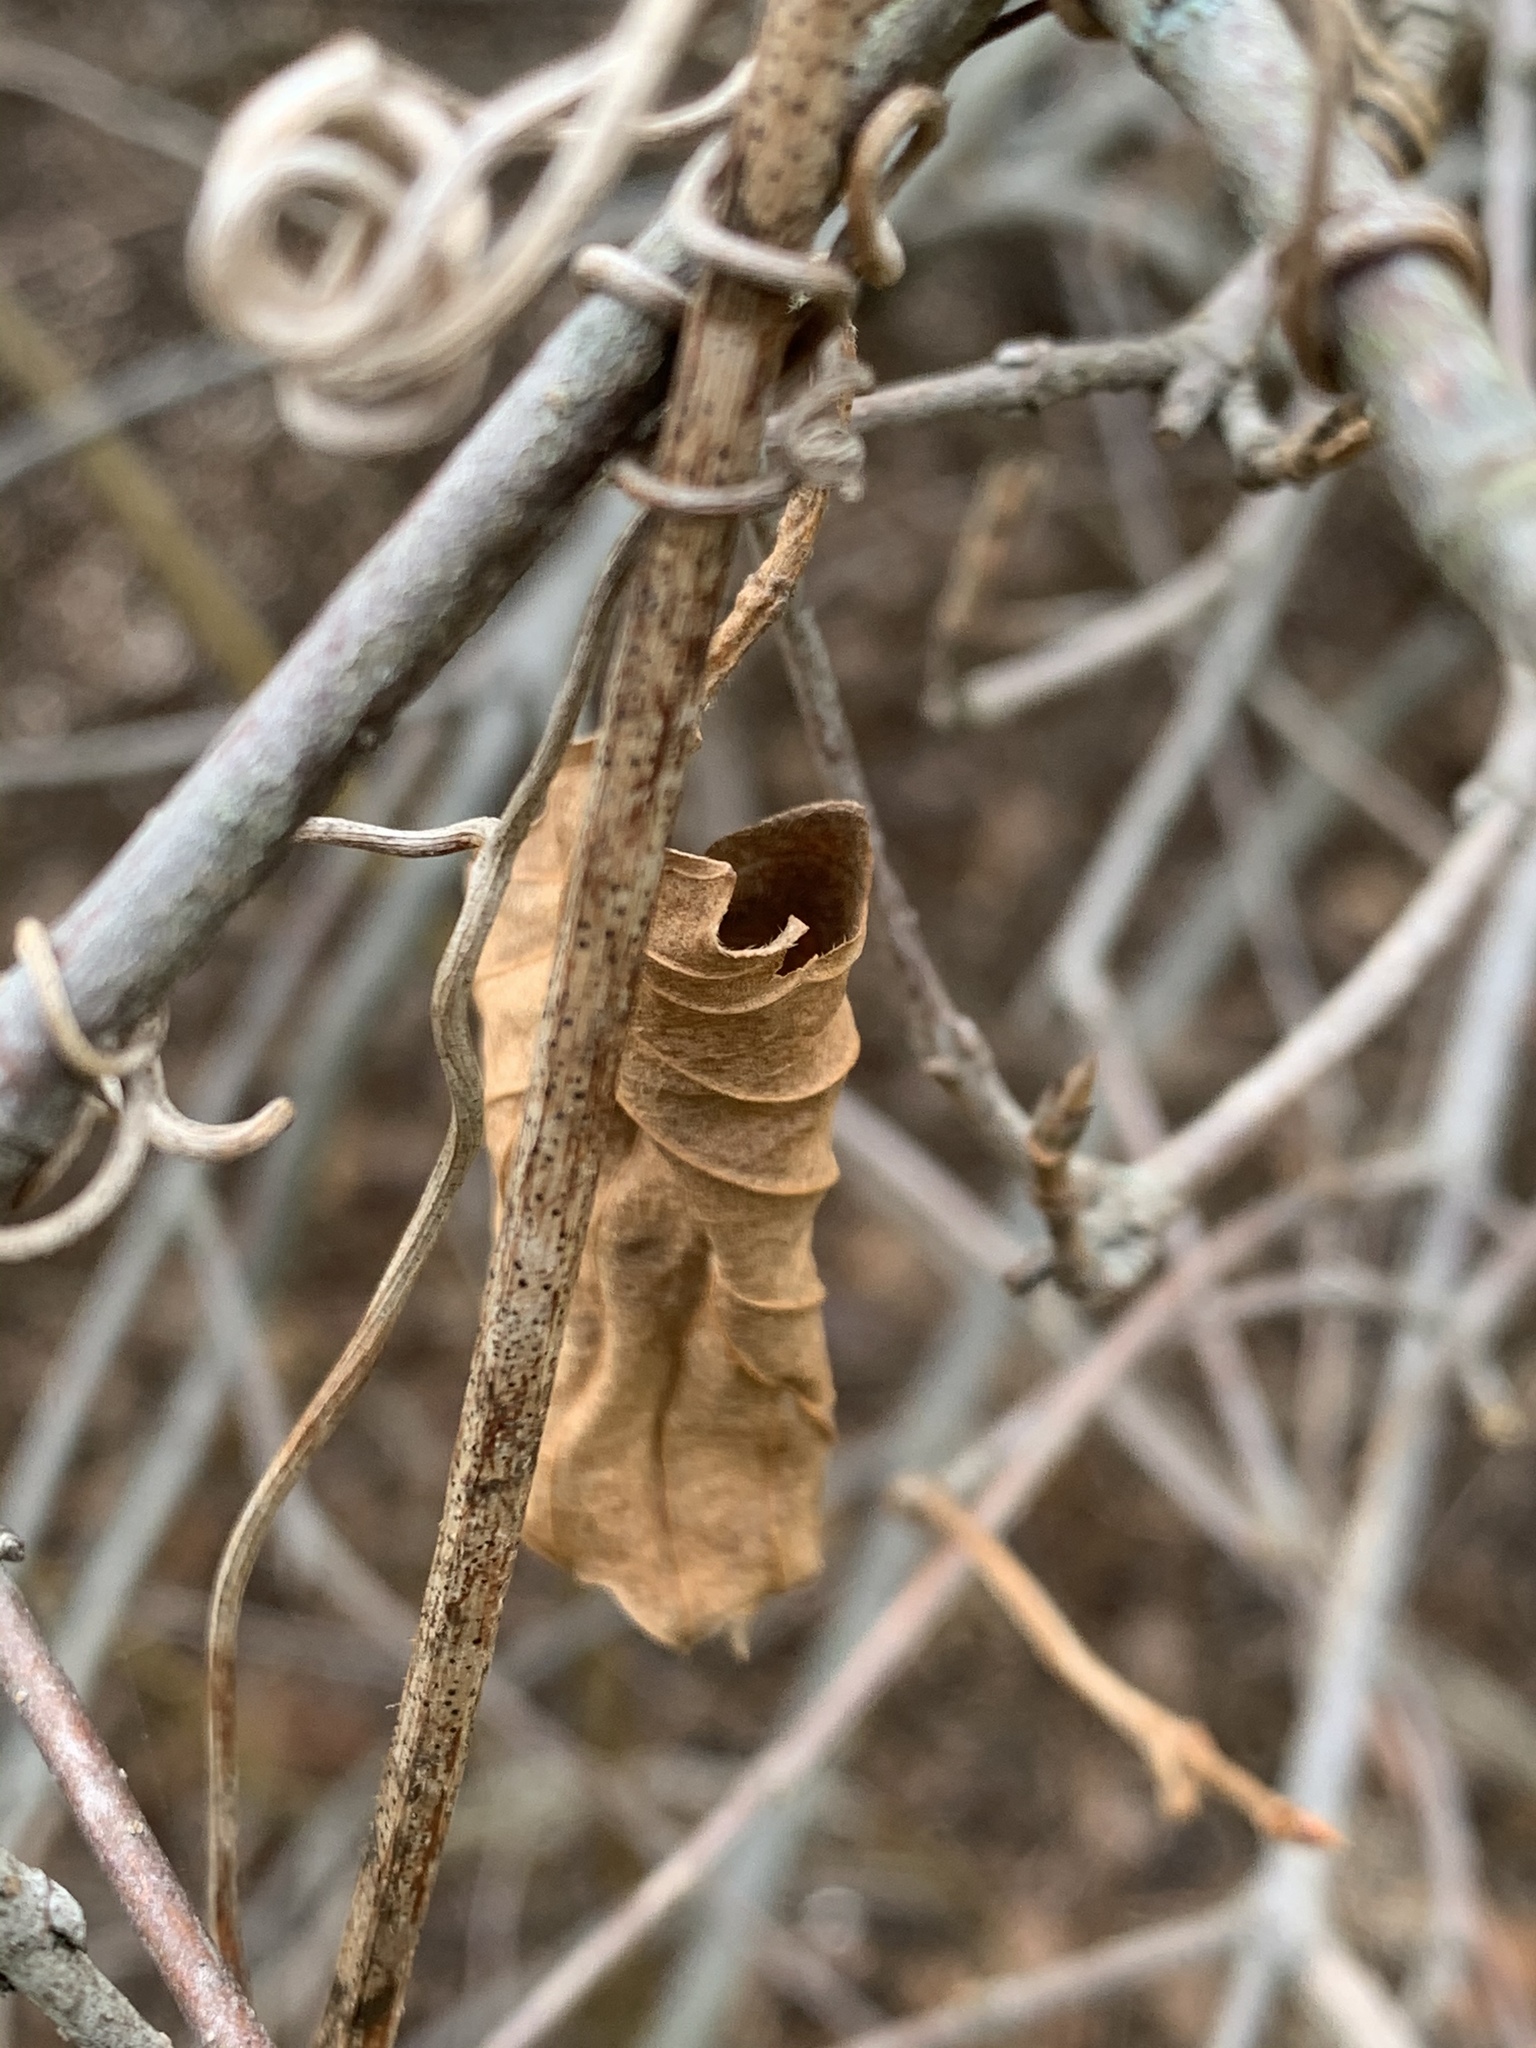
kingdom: Plantae
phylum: Tracheophyta
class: Magnoliopsida
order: Vitales
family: Vitaceae
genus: Ampelopsis
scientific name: Ampelopsis glandulosa
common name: Amur peppervine
